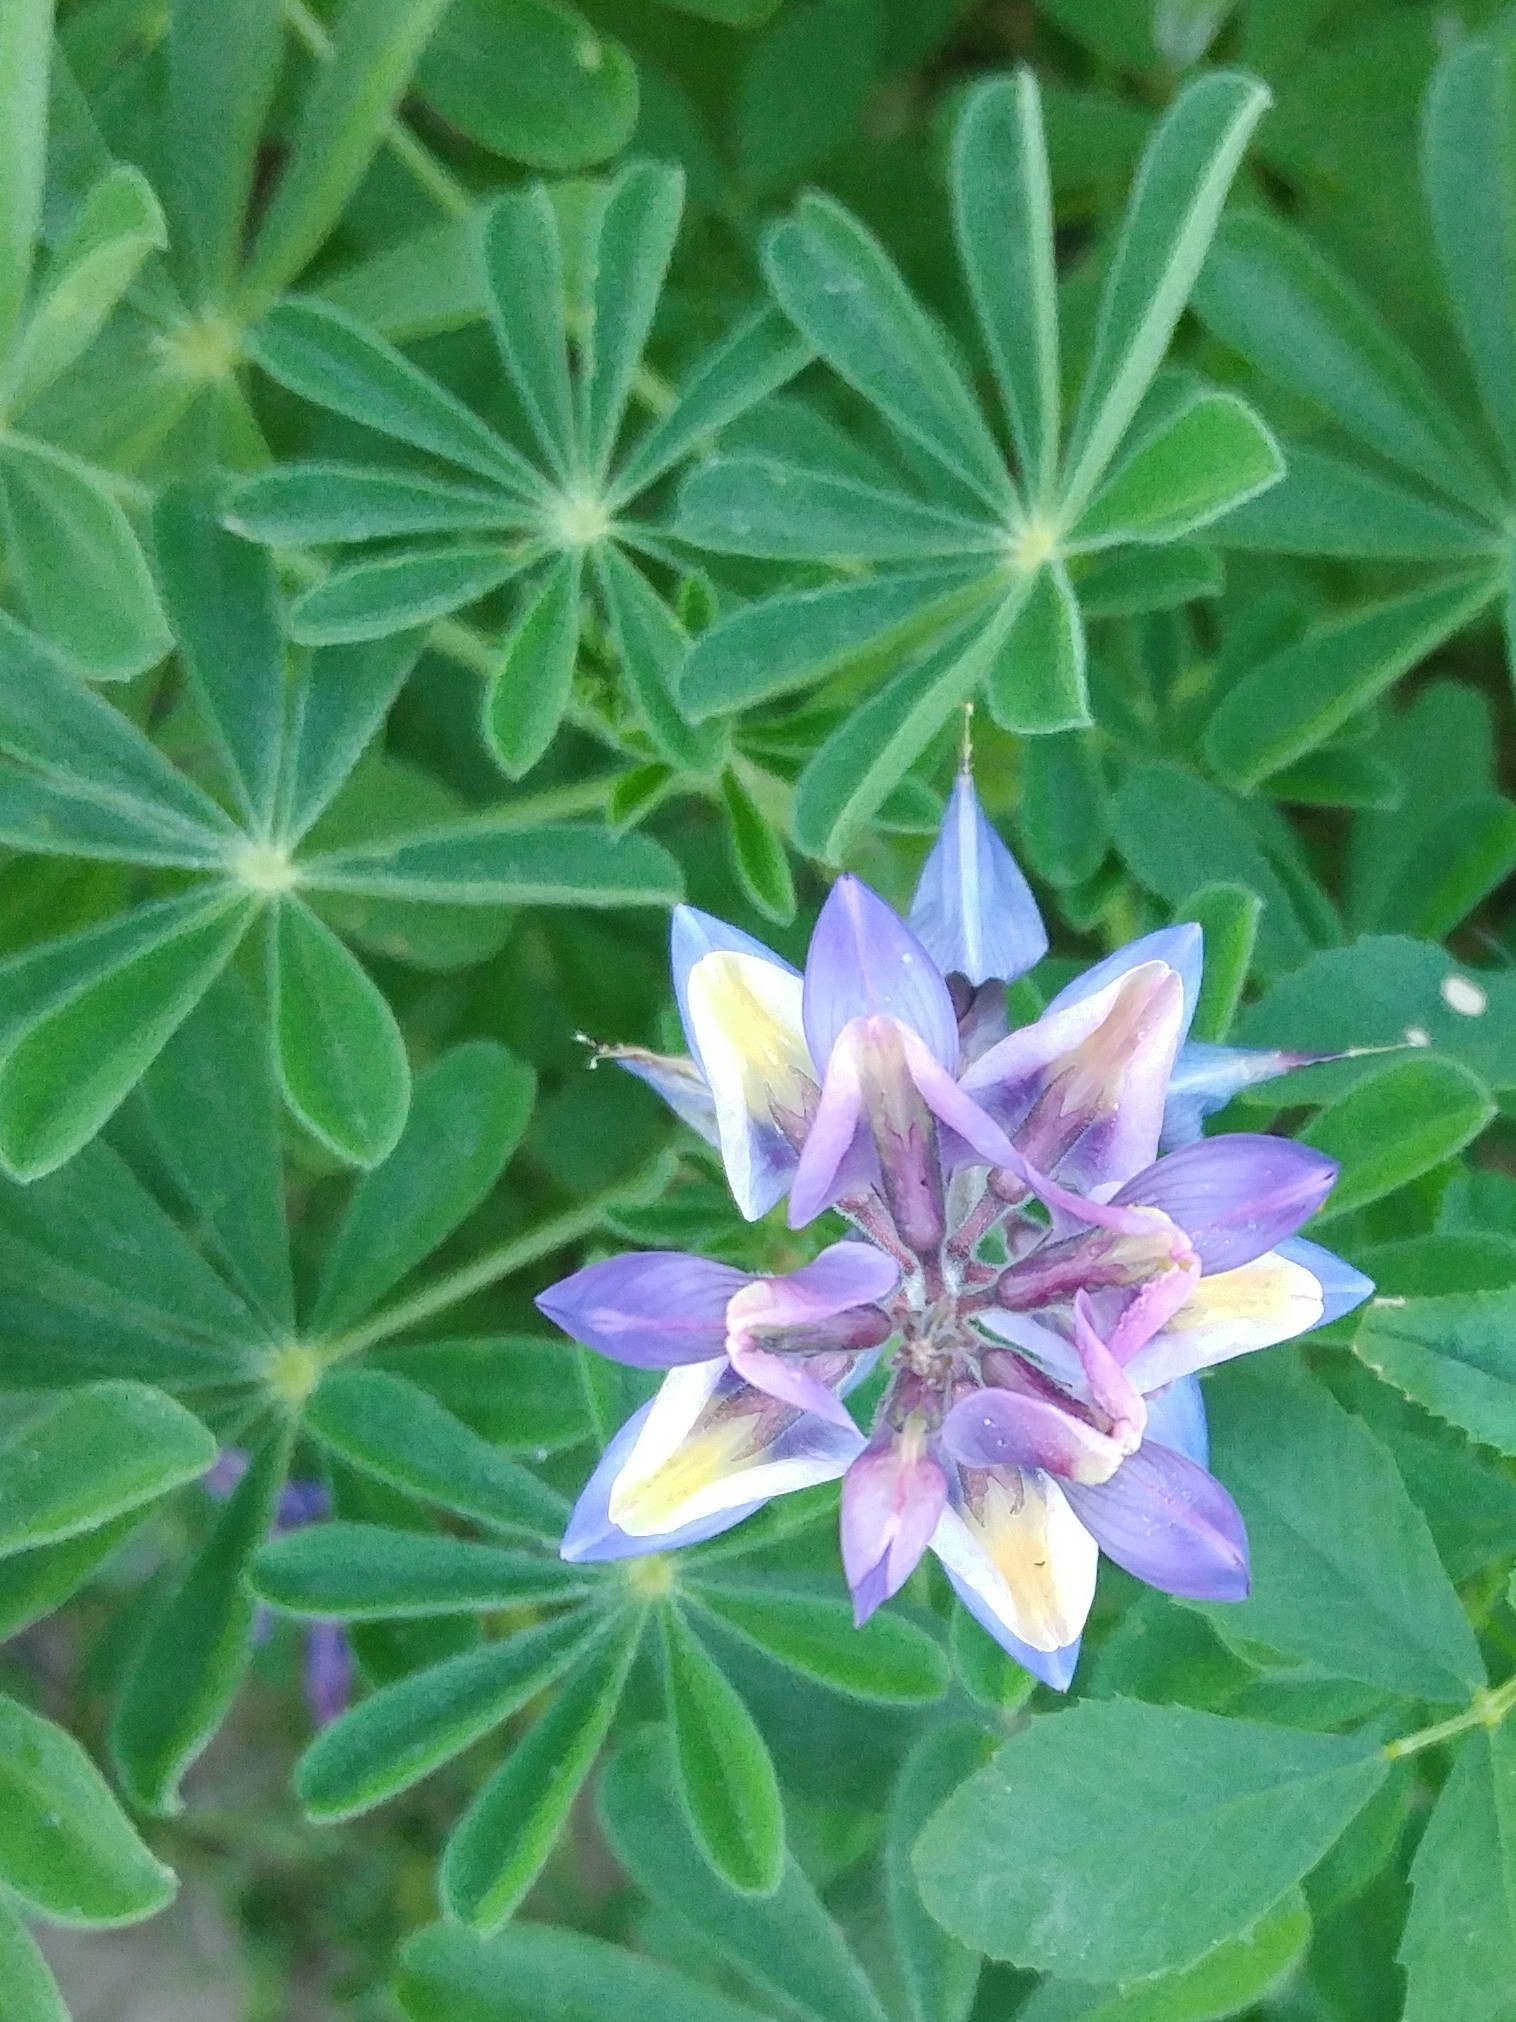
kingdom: Plantae
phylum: Tracheophyta
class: Magnoliopsida
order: Fabales
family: Fabaceae
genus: Lupinus
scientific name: Lupinus succulentus
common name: Arroyo lupine
